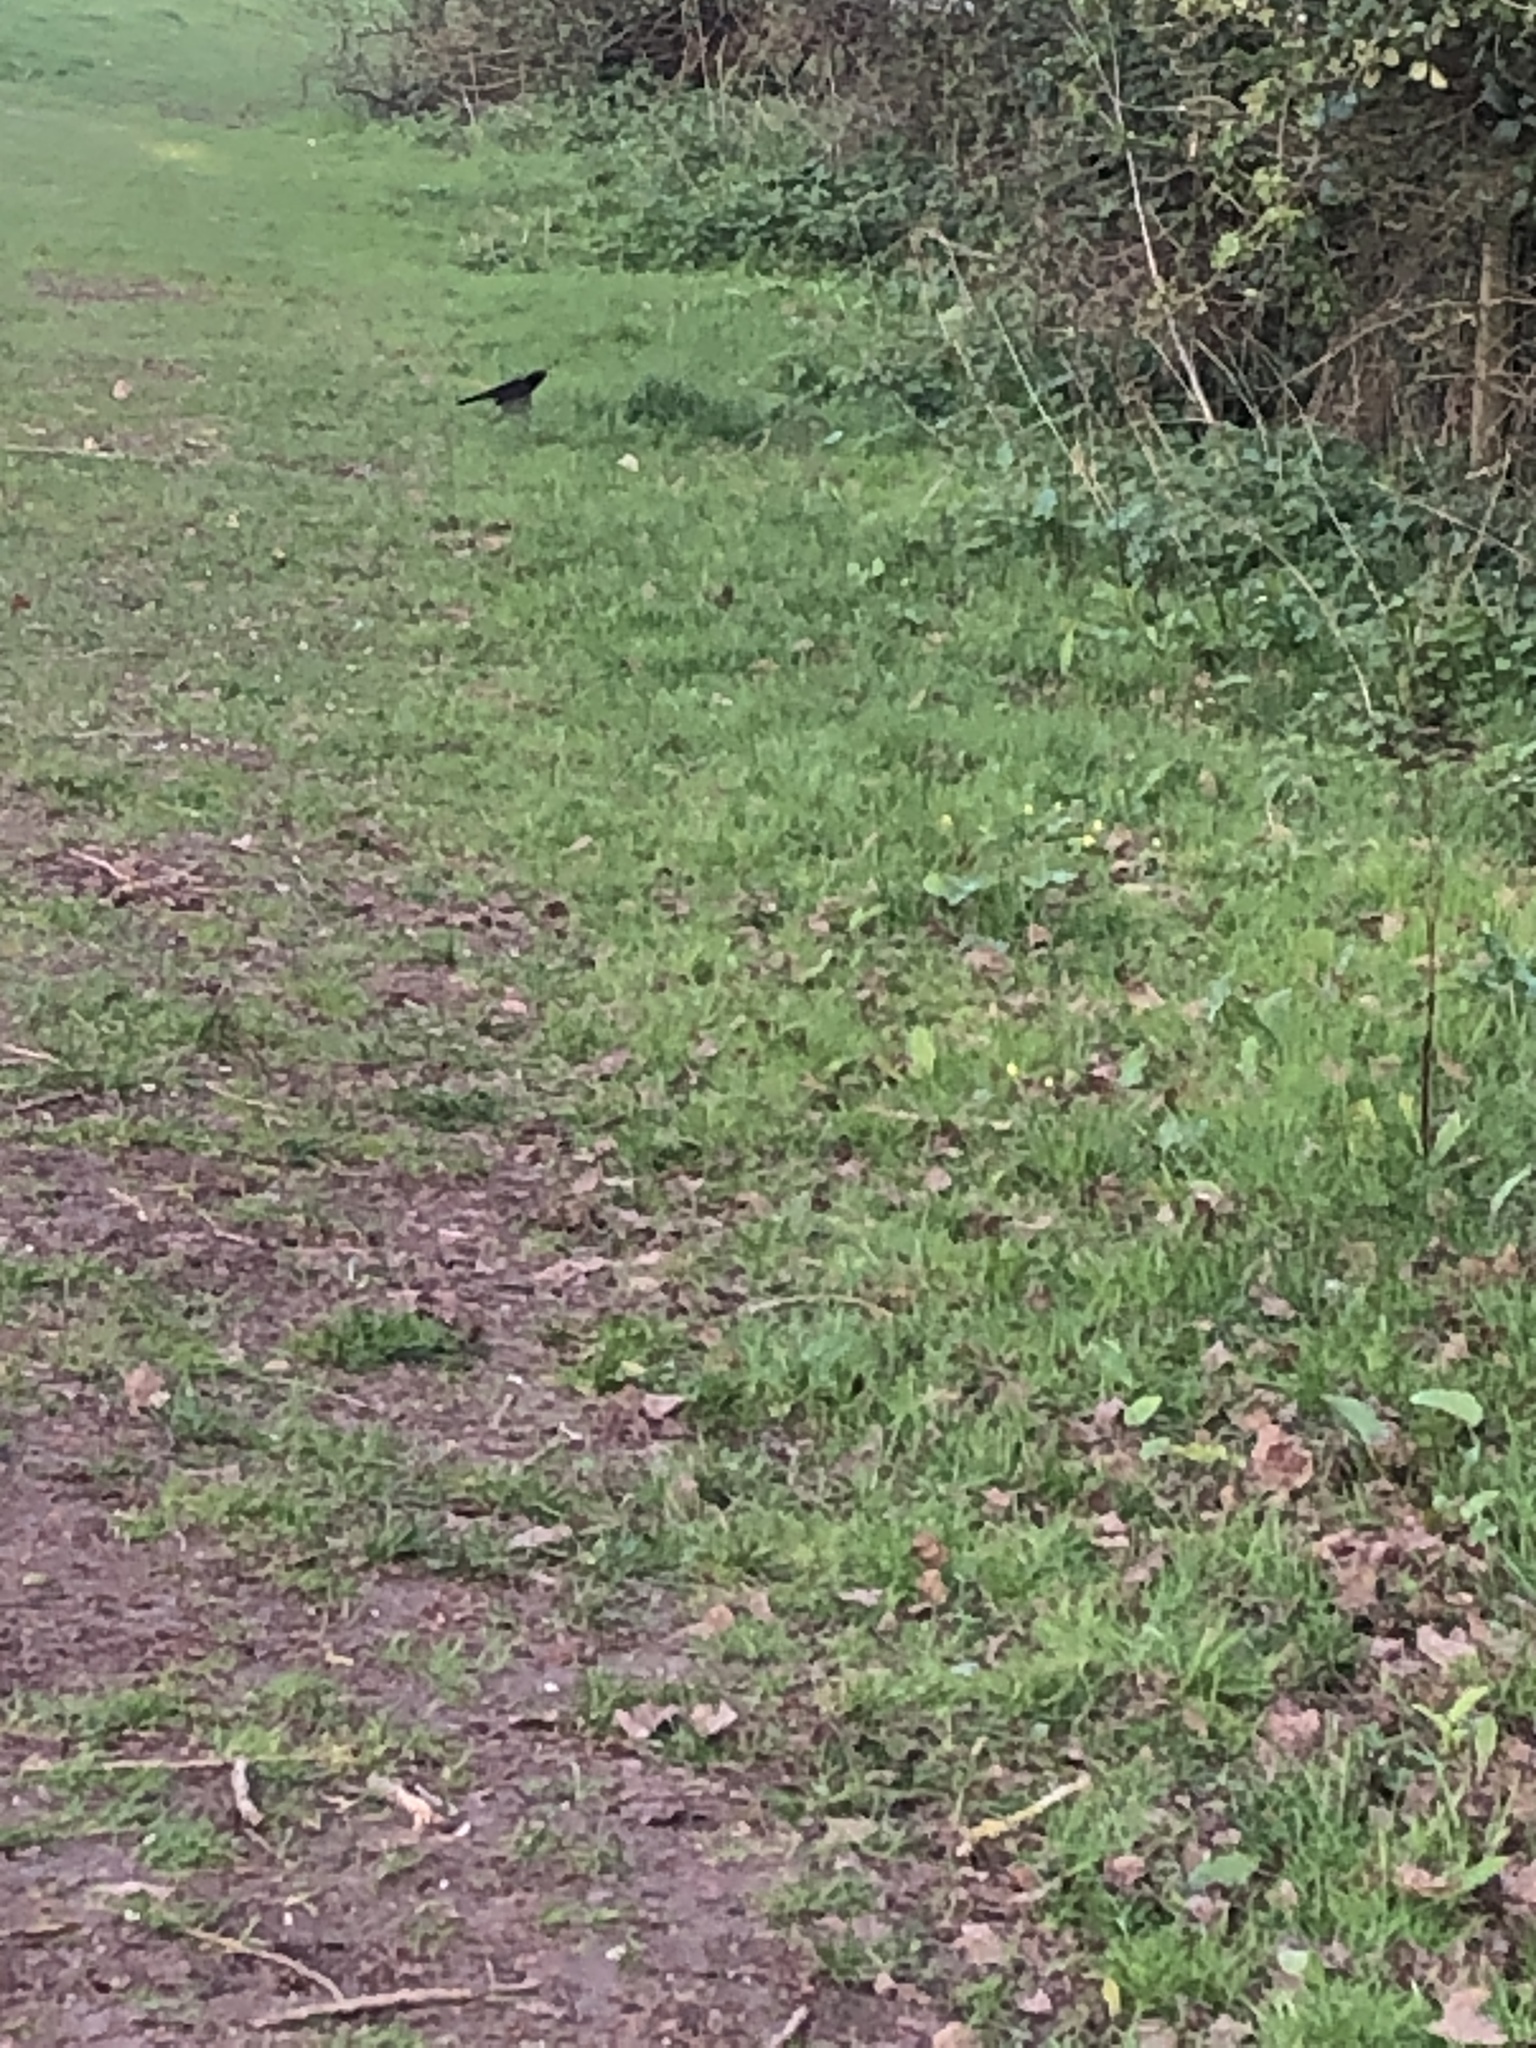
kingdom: Animalia
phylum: Chordata
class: Aves
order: Passeriformes
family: Turdidae
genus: Turdus
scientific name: Turdus merula
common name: Common blackbird
